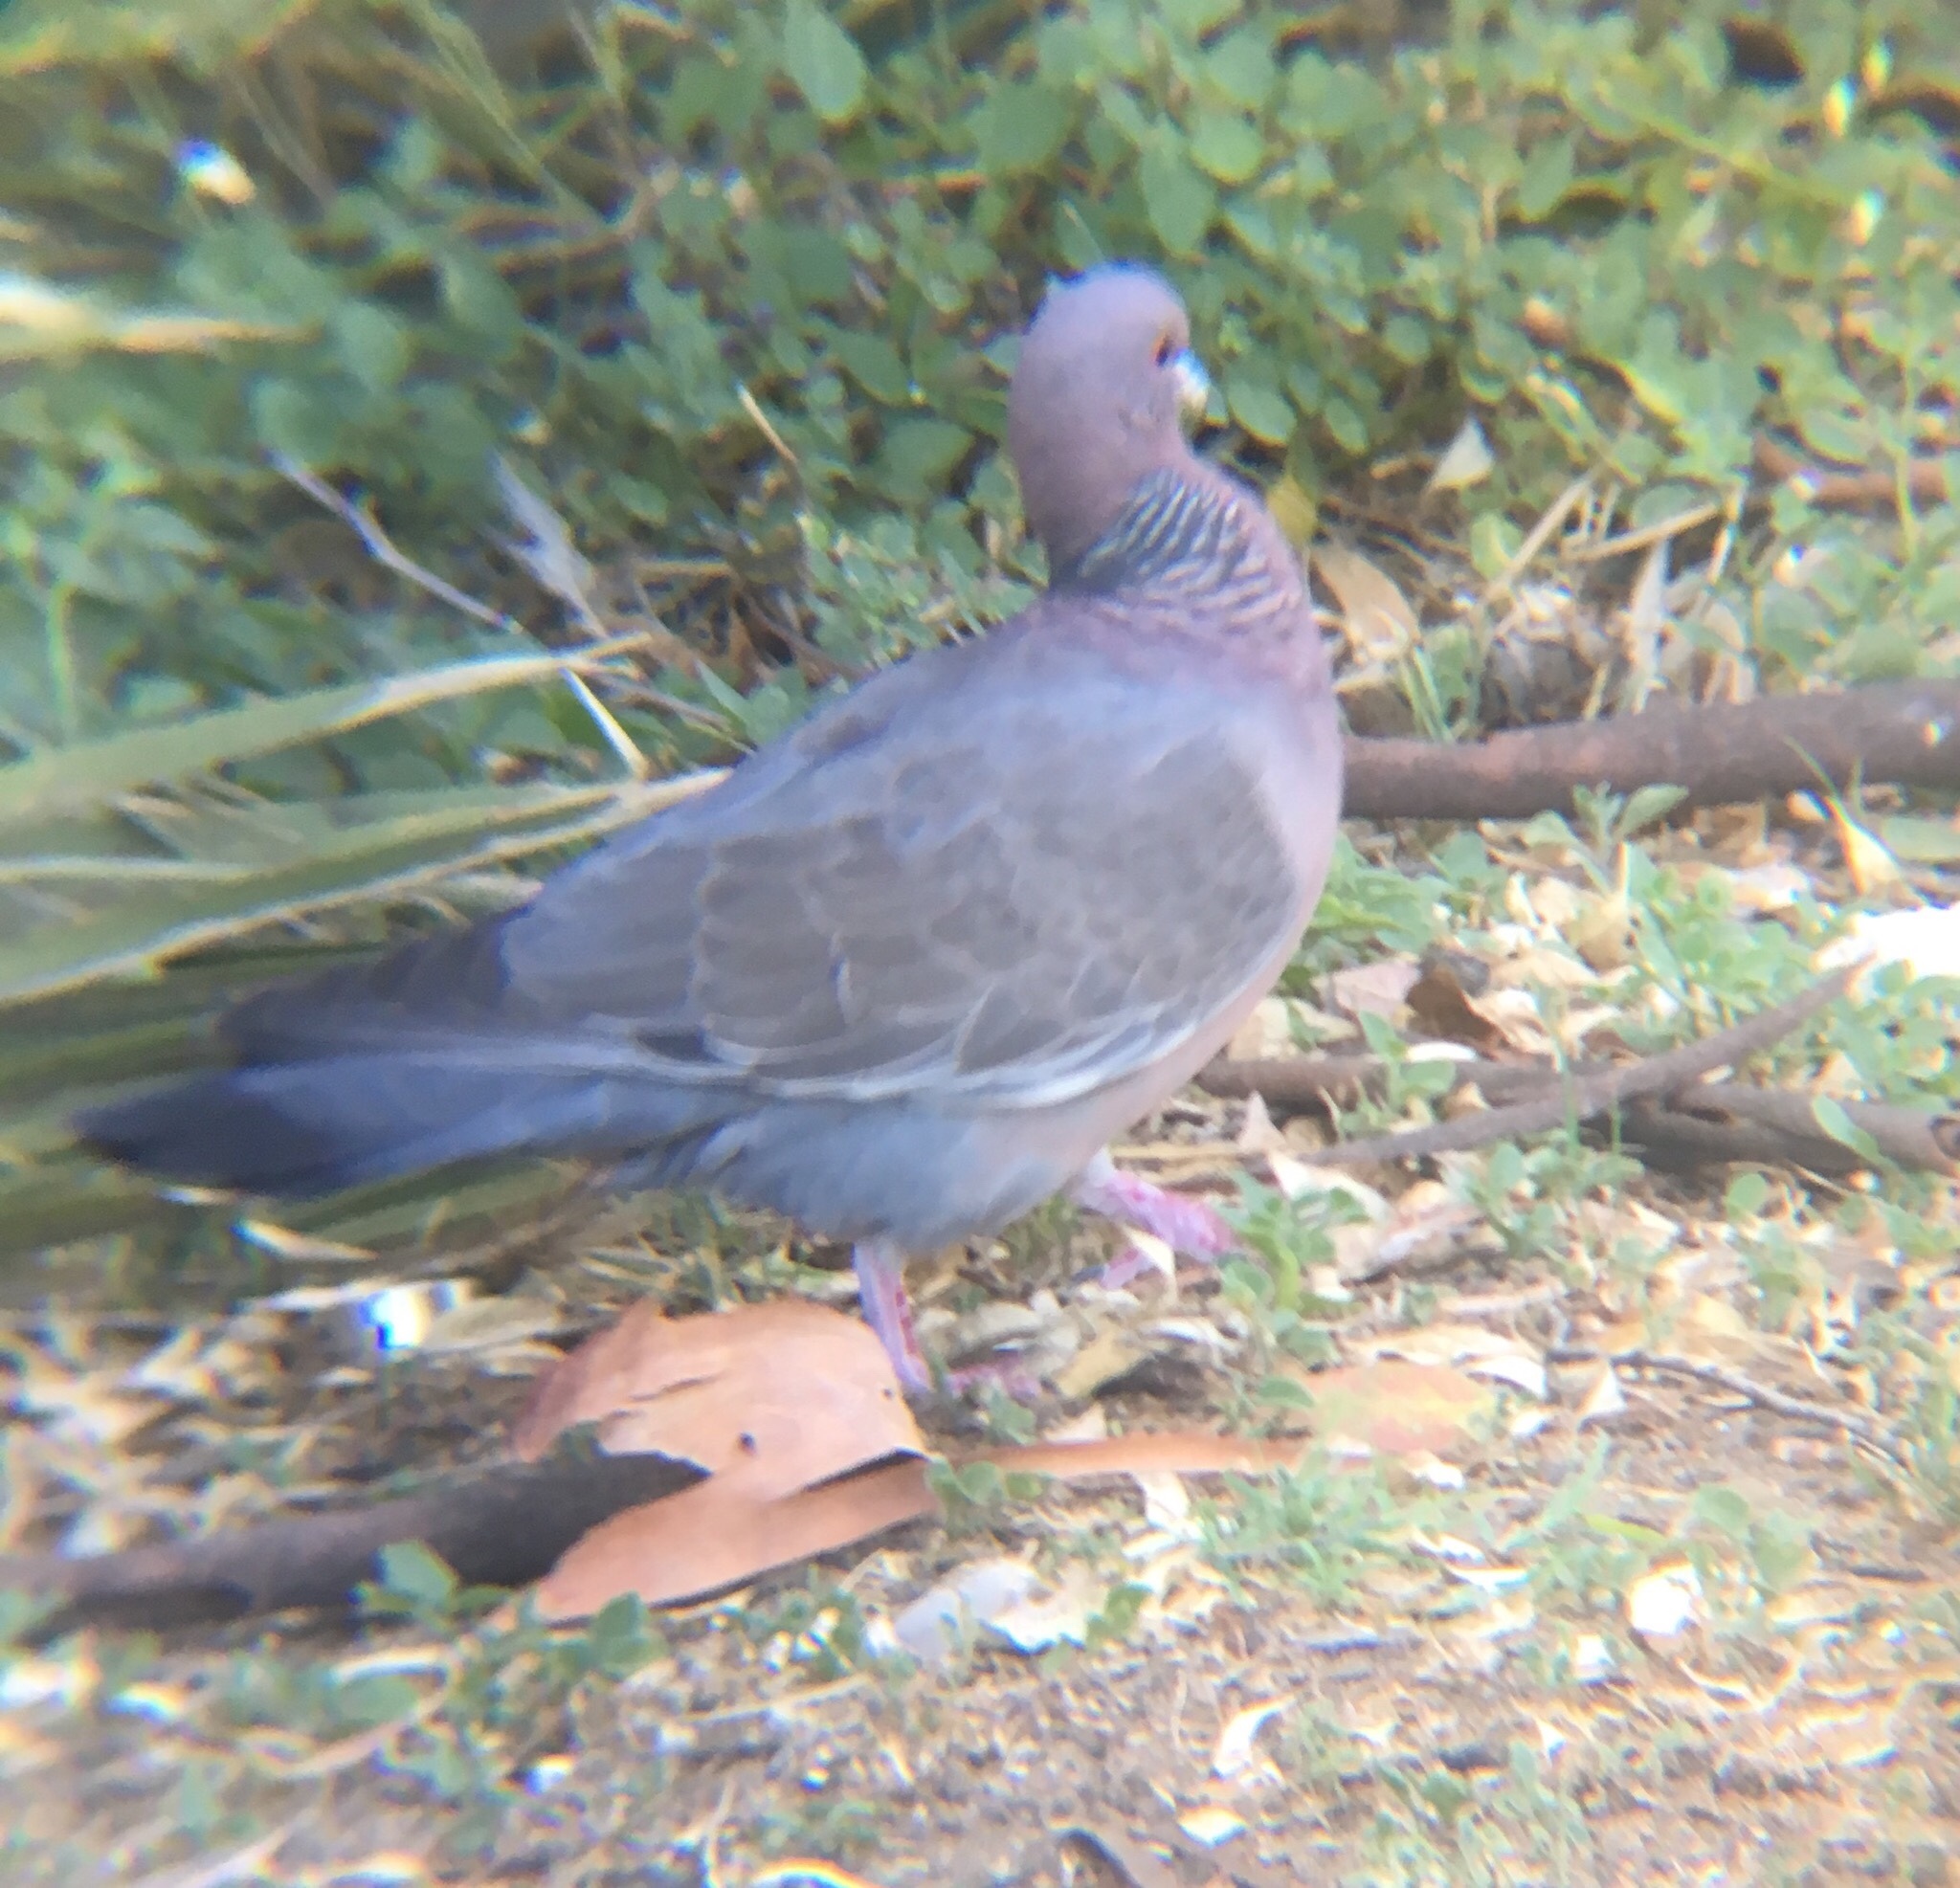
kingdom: Animalia
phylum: Chordata
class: Aves
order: Columbiformes
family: Columbidae
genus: Patagioenas
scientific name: Patagioenas picazuro
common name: Picazuro pigeon
